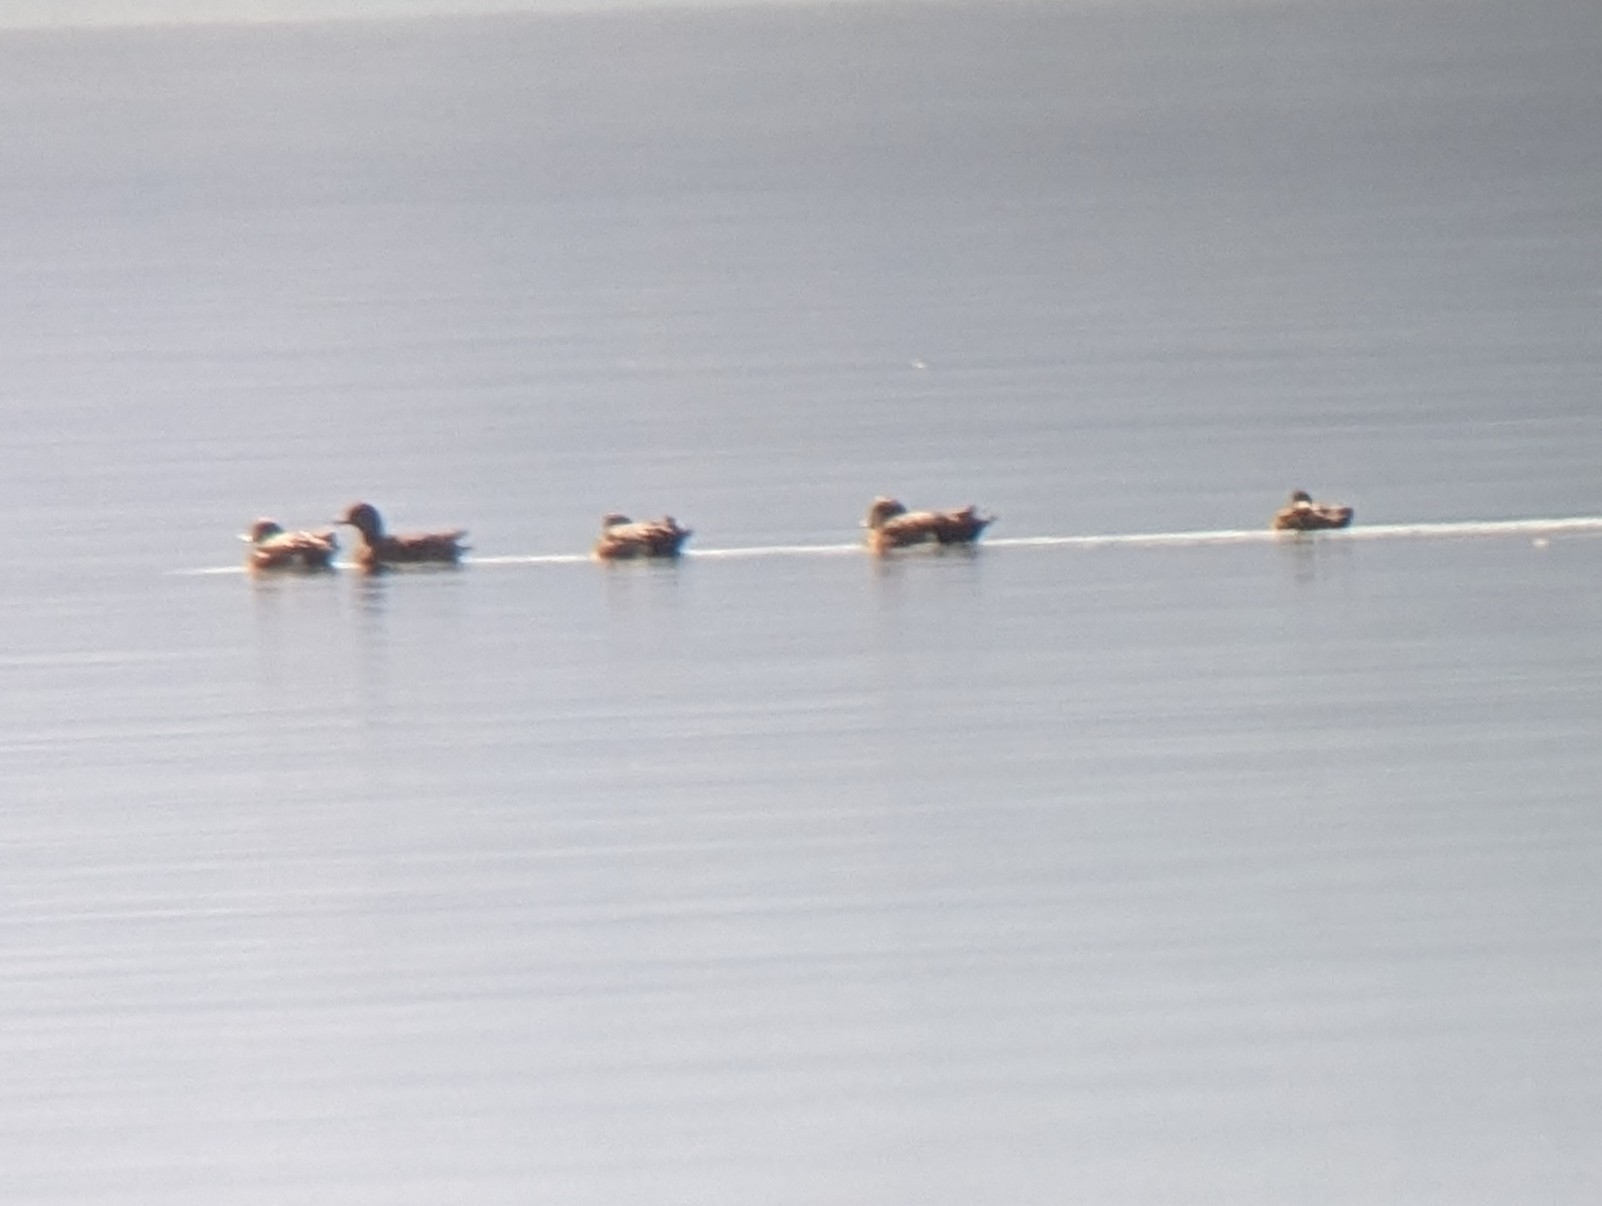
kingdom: Animalia
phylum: Chordata
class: Aves
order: Anseriformes
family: Anatidae
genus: Mareca
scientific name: Mareca americana
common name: American wigeon
